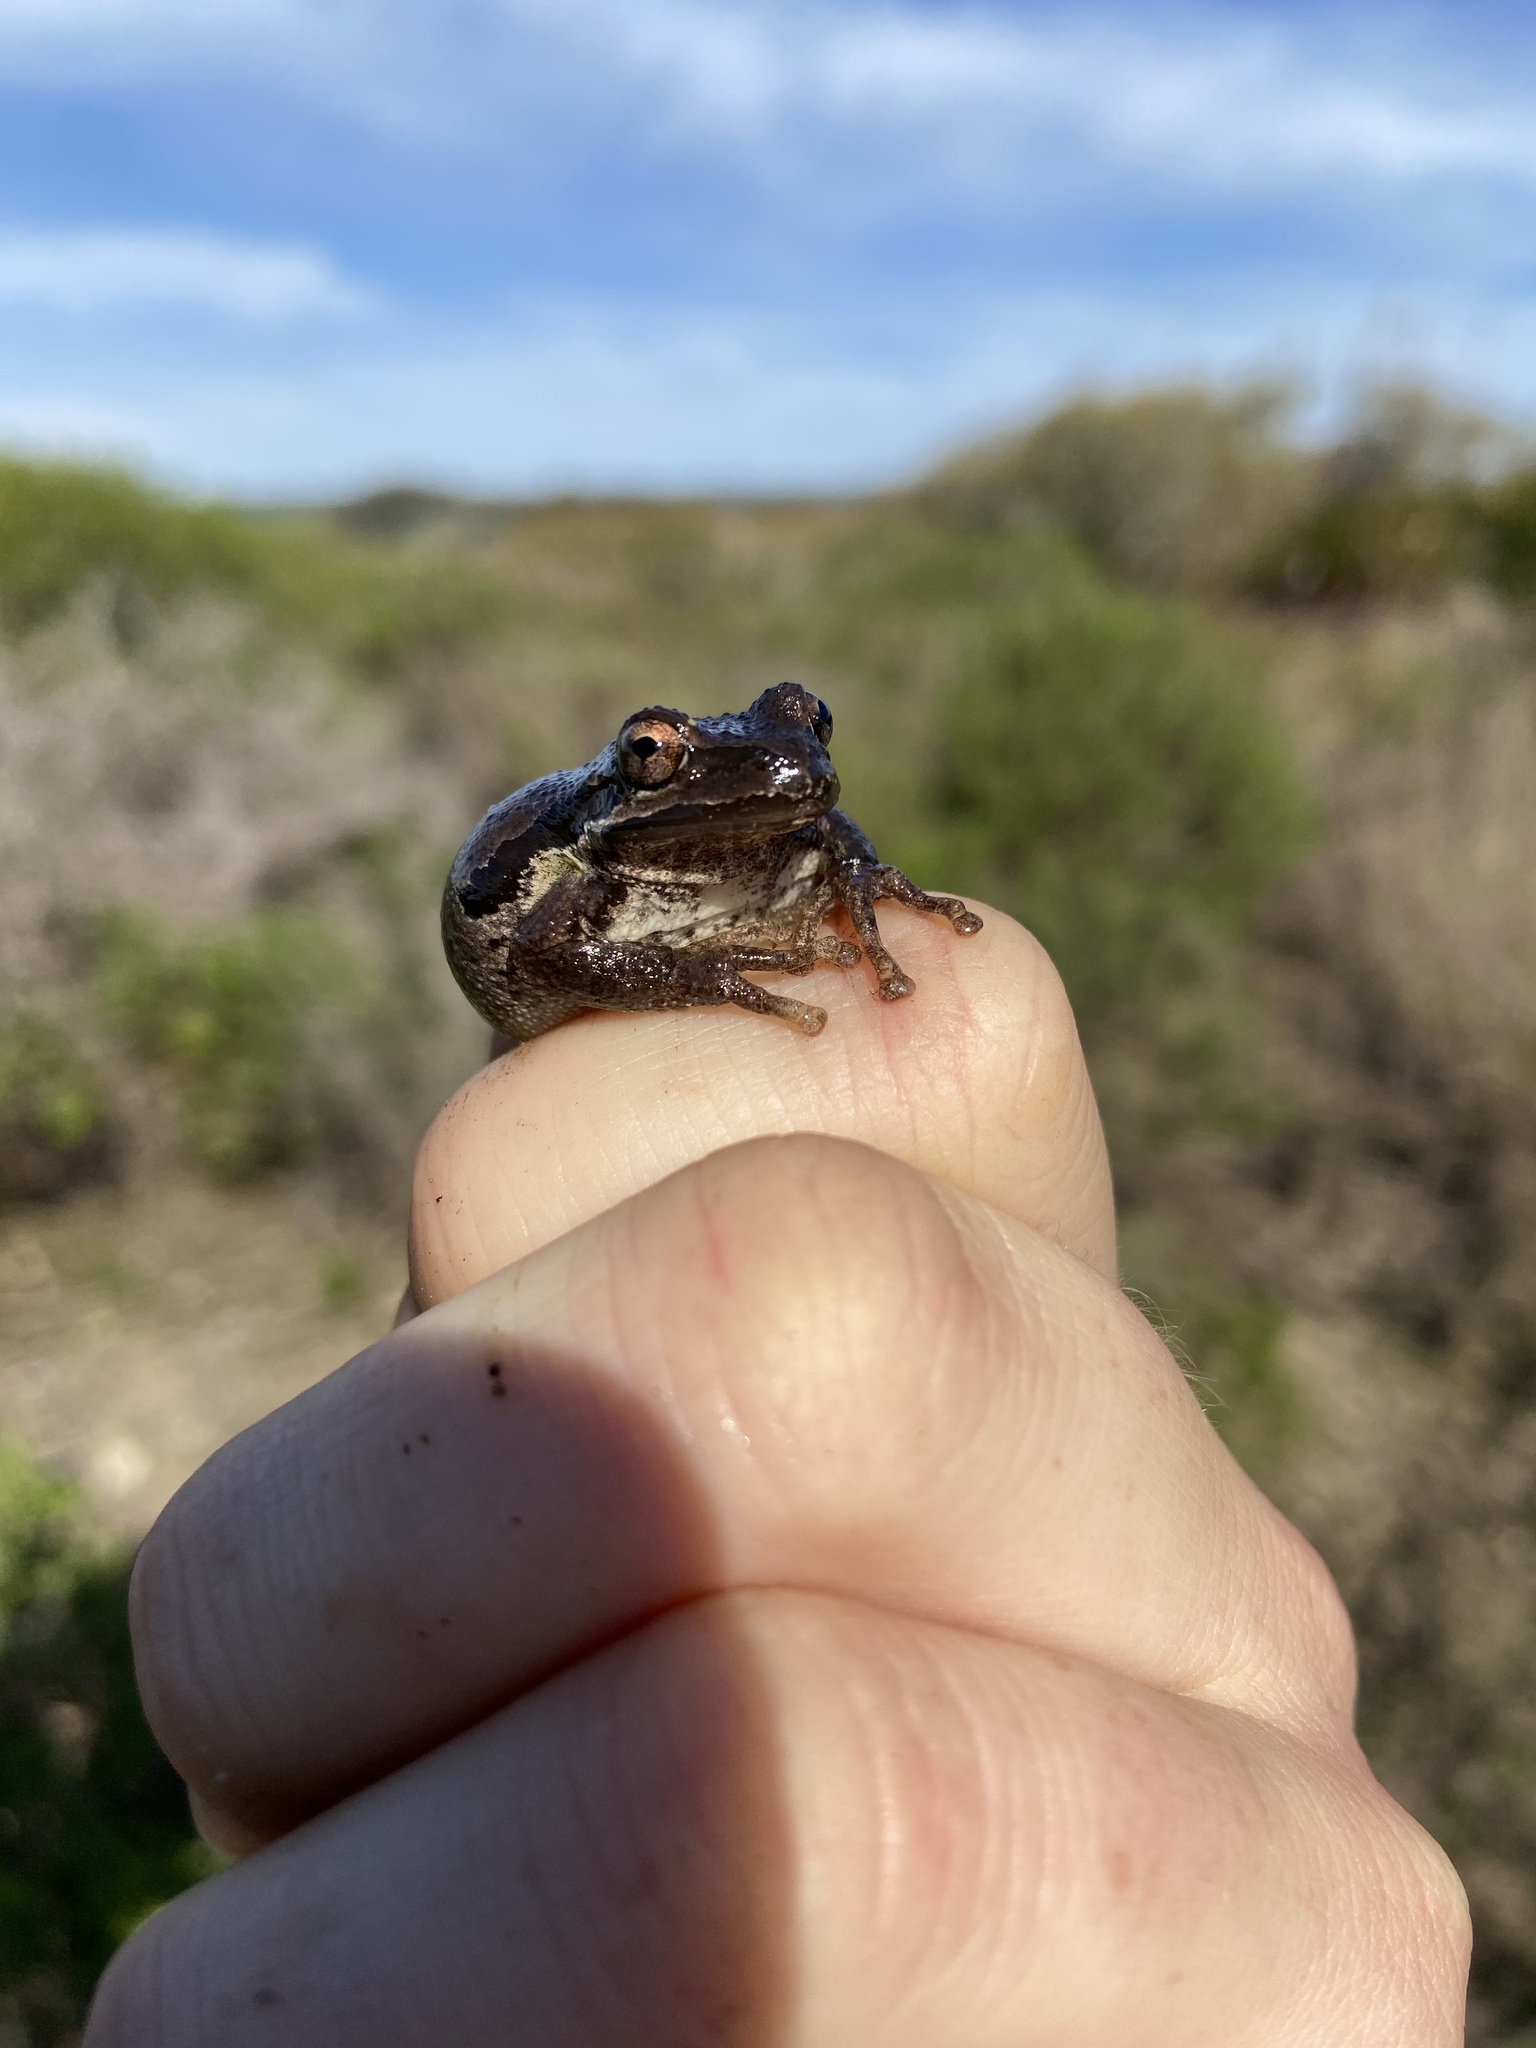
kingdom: Animalia
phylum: Chordata
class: Amphibia
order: Anura
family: Hylidae
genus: Pseudacris
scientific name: Pseudacris regilla
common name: Pacific chorus frog
